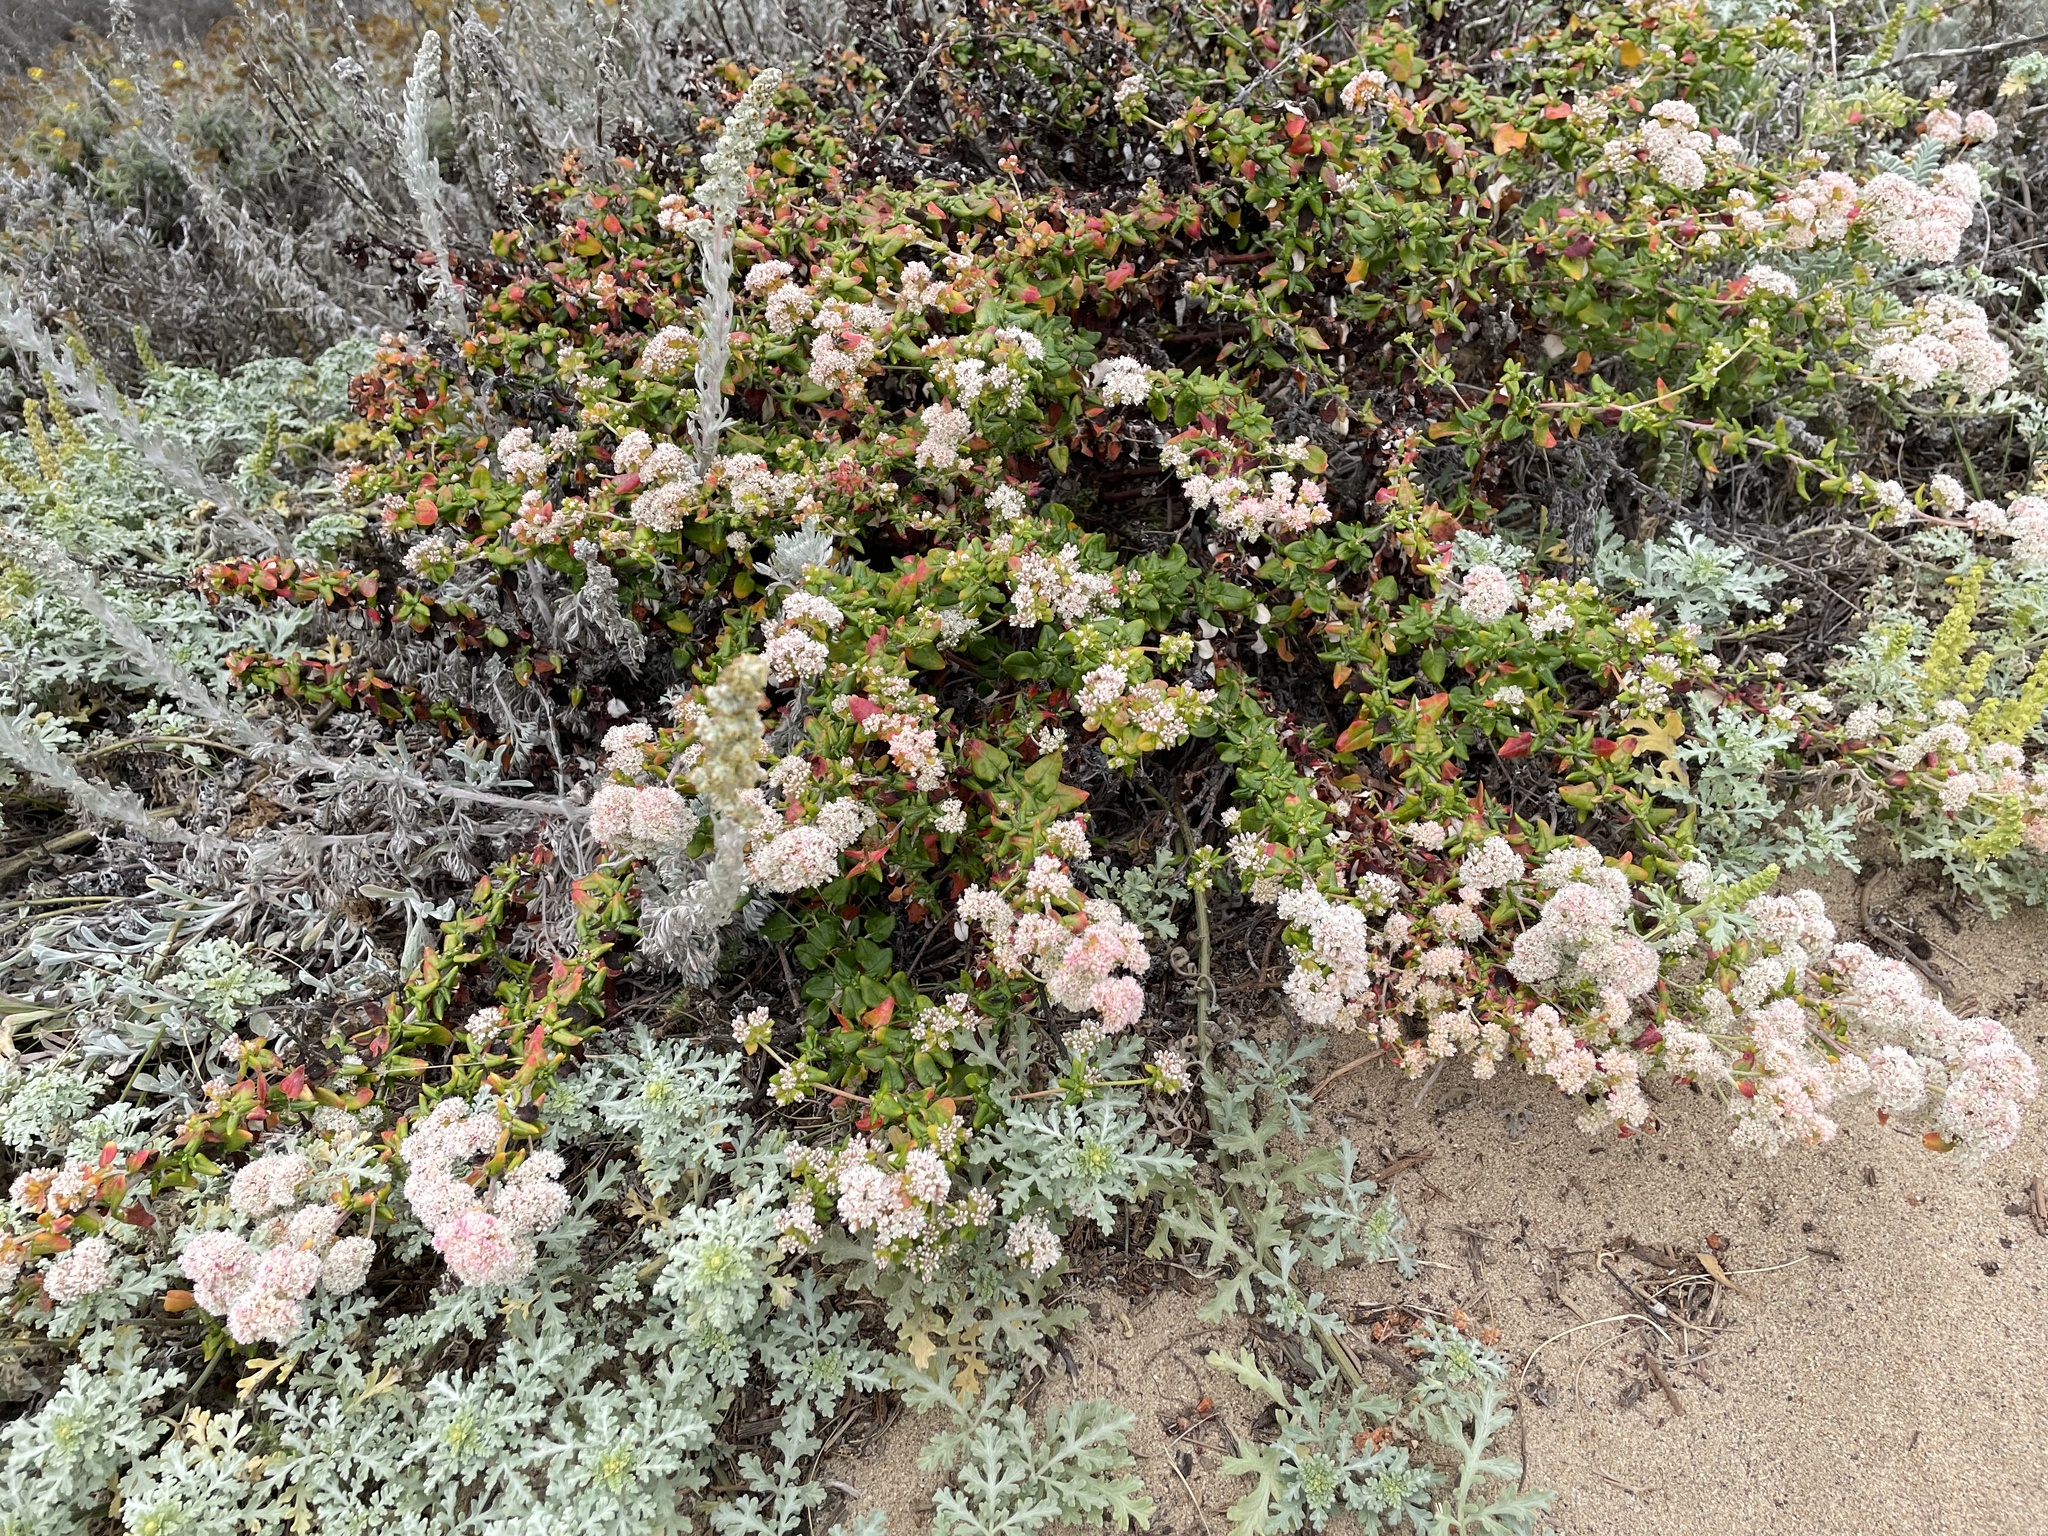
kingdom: Plantae
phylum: Tracheophyta
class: Magnoliopsida
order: Caryophyllales
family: Polygonaceae
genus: Eriogonum
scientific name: Eriogonum parvifolium
